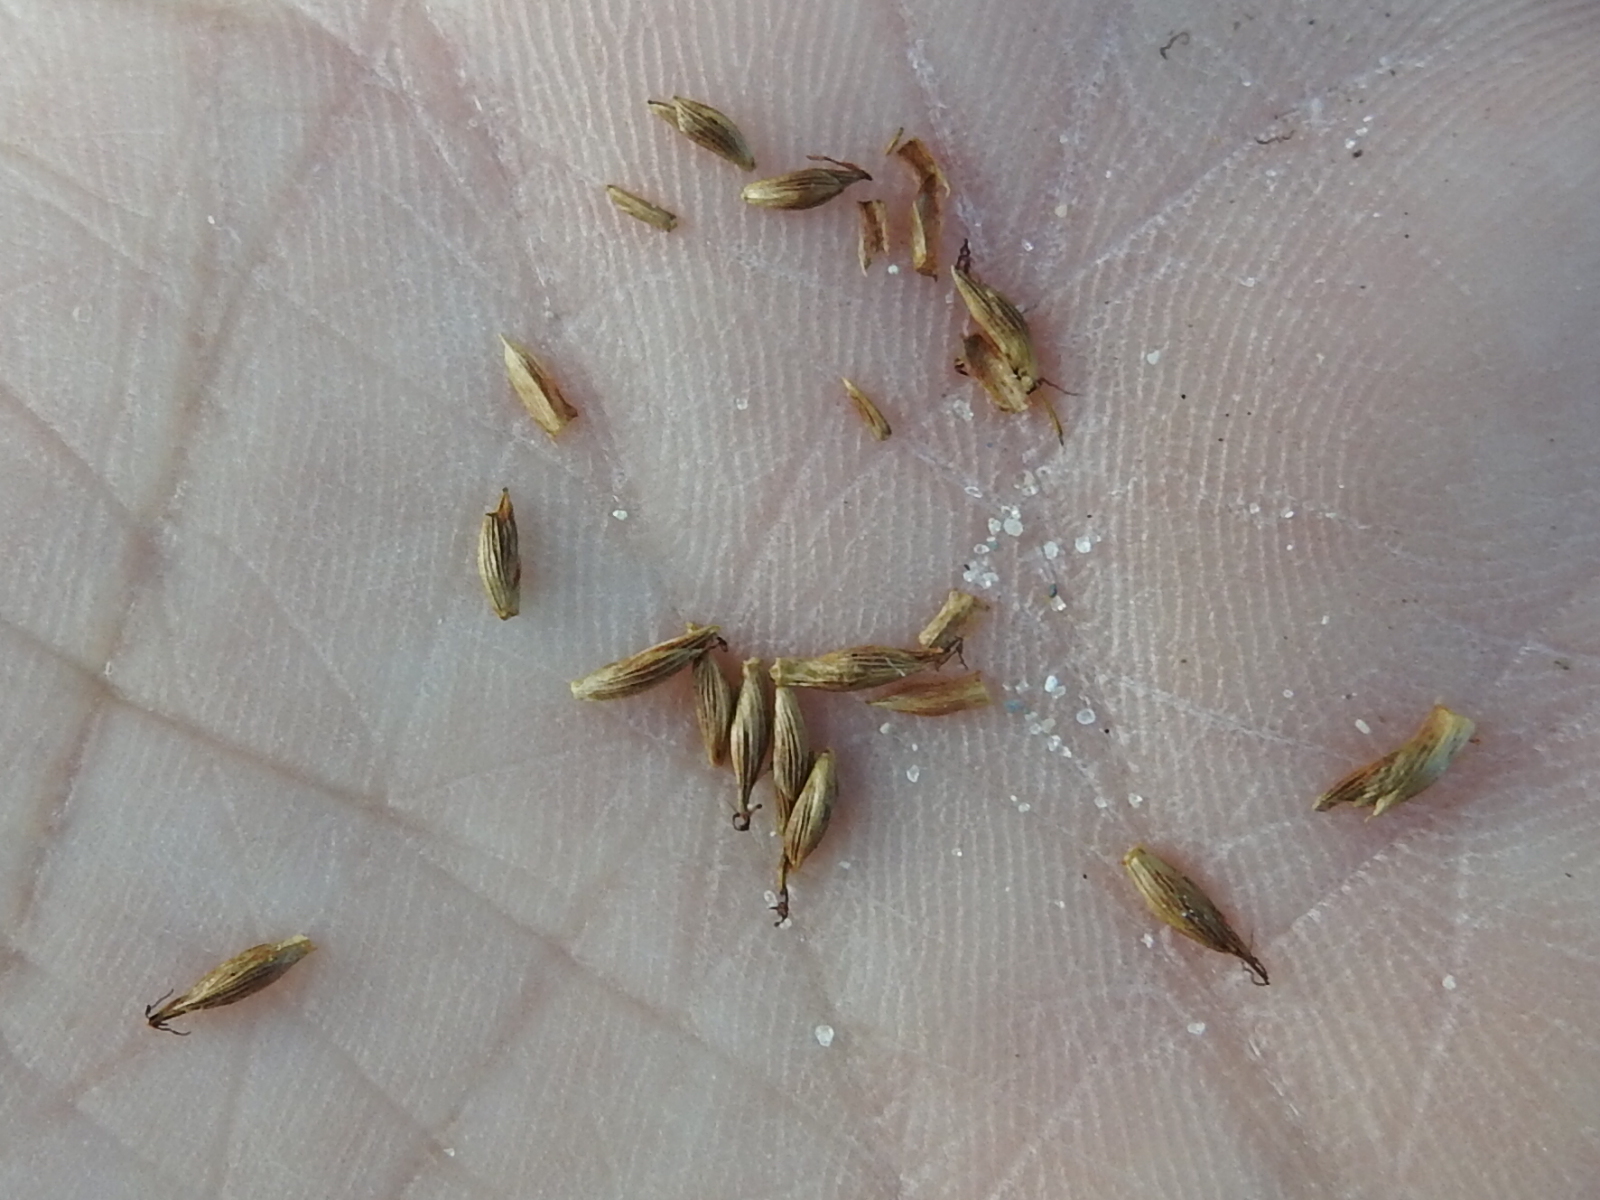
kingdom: Plantae
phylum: Tracheophyta
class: Liliopsida
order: Poales
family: Cyperaceae
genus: Cyperus
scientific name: Cyperus pedunculatus
